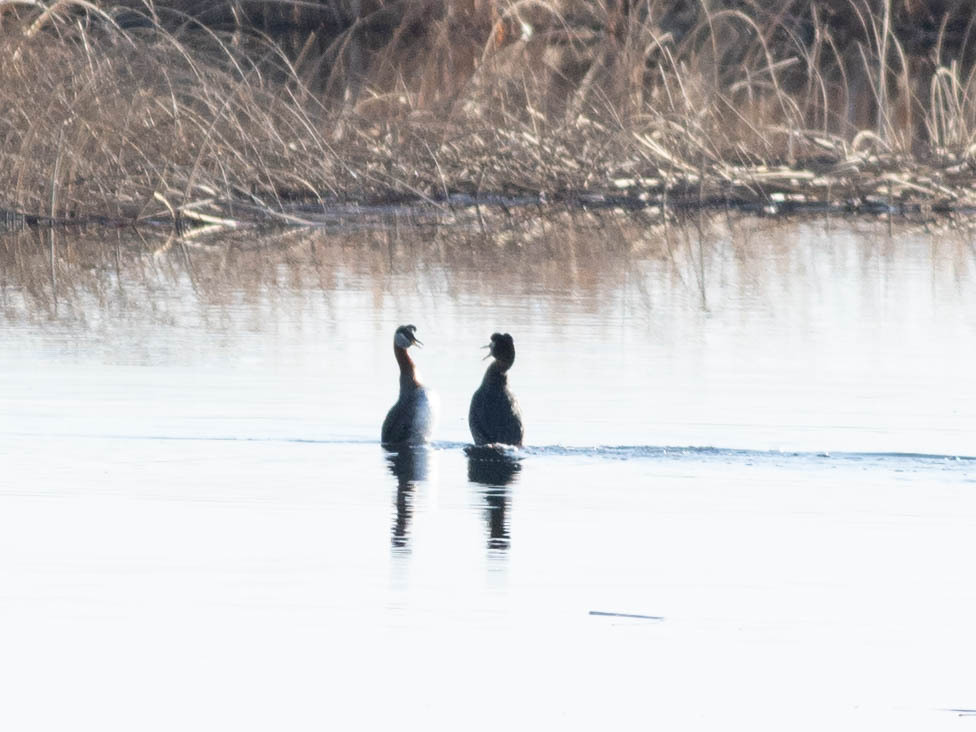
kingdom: Animalia
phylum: Chordata
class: Aves
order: Podicipediformes
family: Podicipedidae
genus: Podiceps
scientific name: Podiceps grisegena
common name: Red-necked grebe
